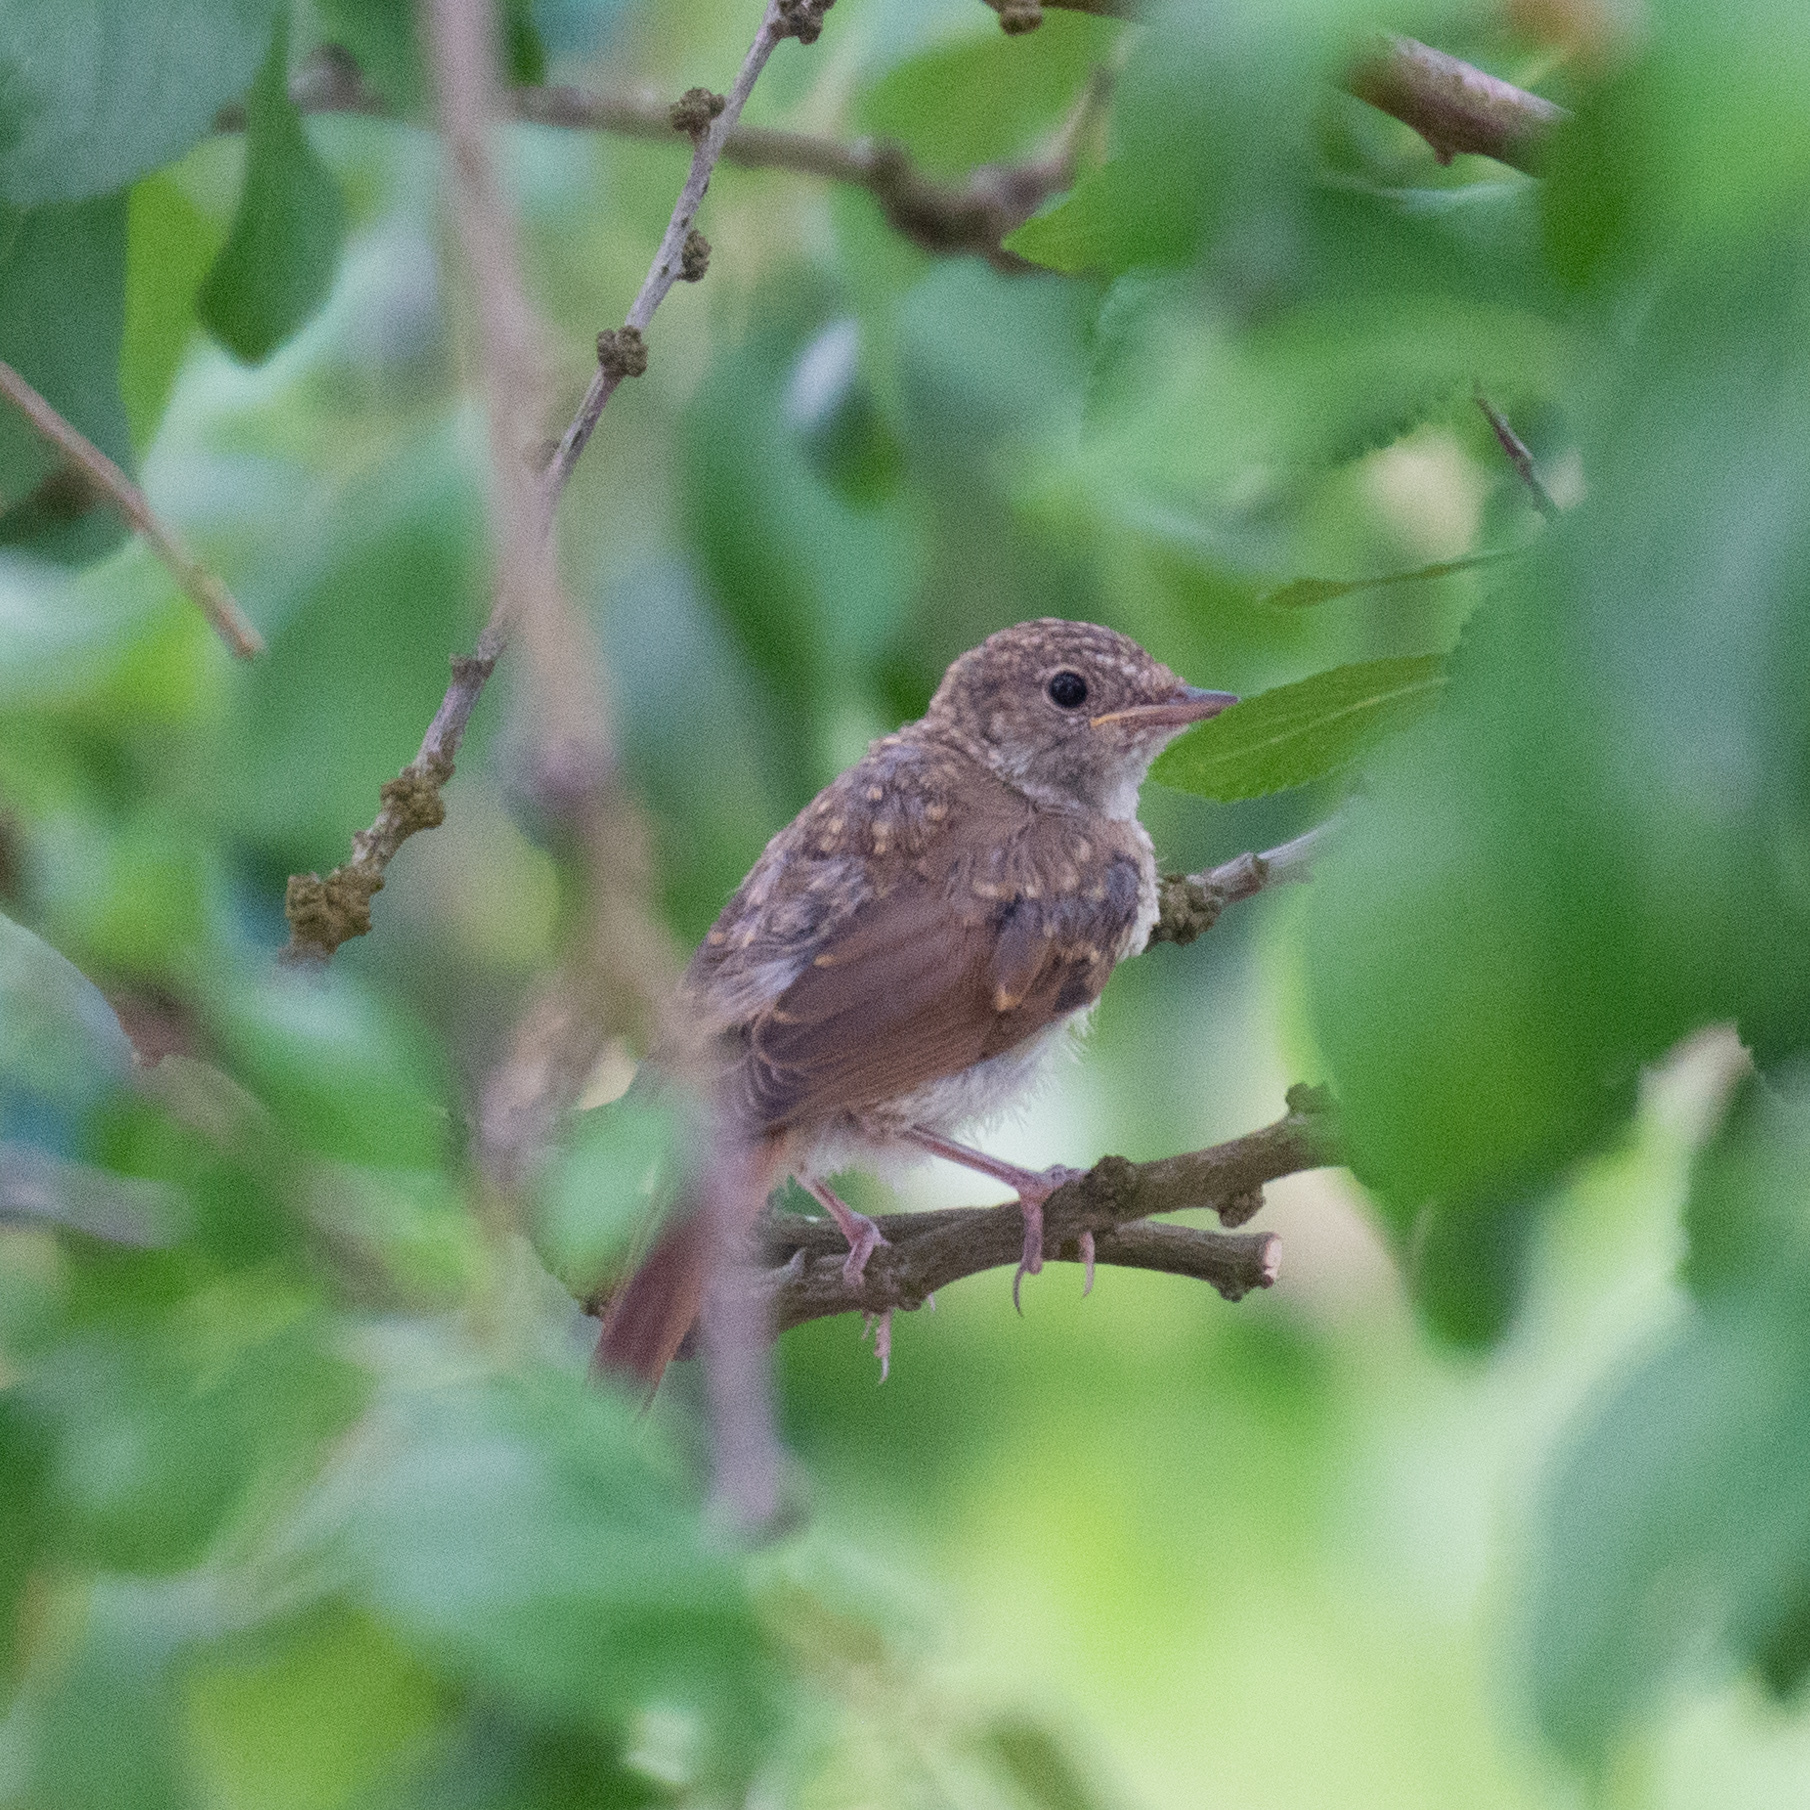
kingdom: Animalia
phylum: Chordata
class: Aves
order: Passeriformes
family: Muscicapidae
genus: Luscinia
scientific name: Luscinia megarhynchos
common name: Common nightingale
